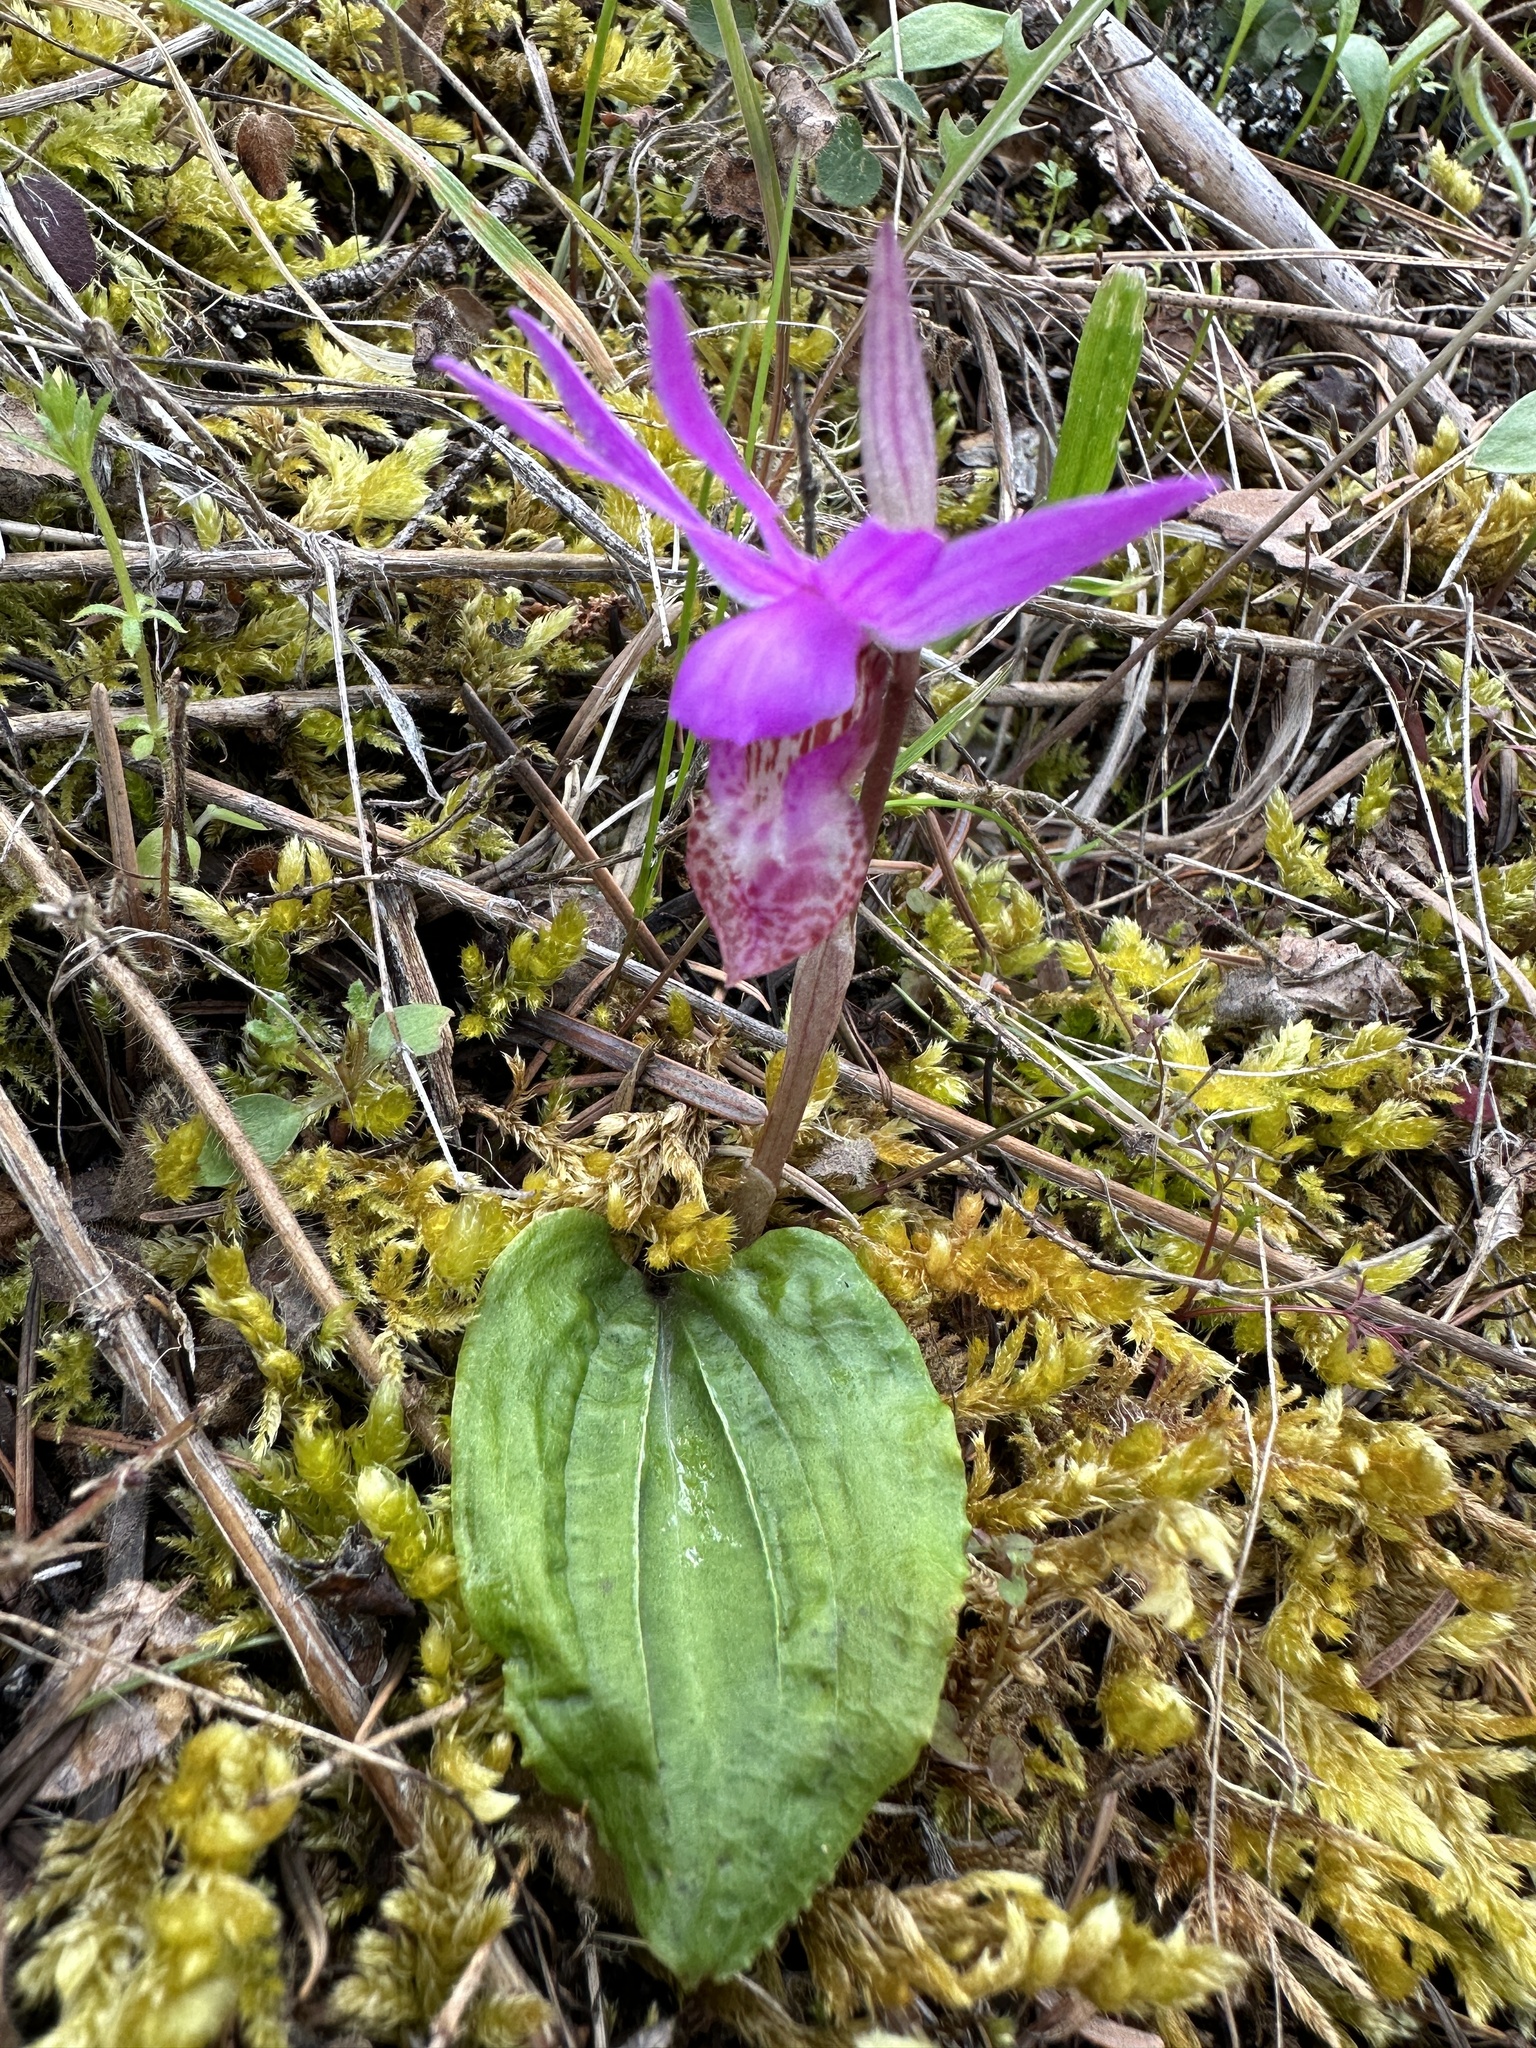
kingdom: Plantae
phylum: Tracheophyta
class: Liliopsida
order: Asparagales
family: Orchidaceae
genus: Calypso
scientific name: Calypso bulbosa
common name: Calypso
